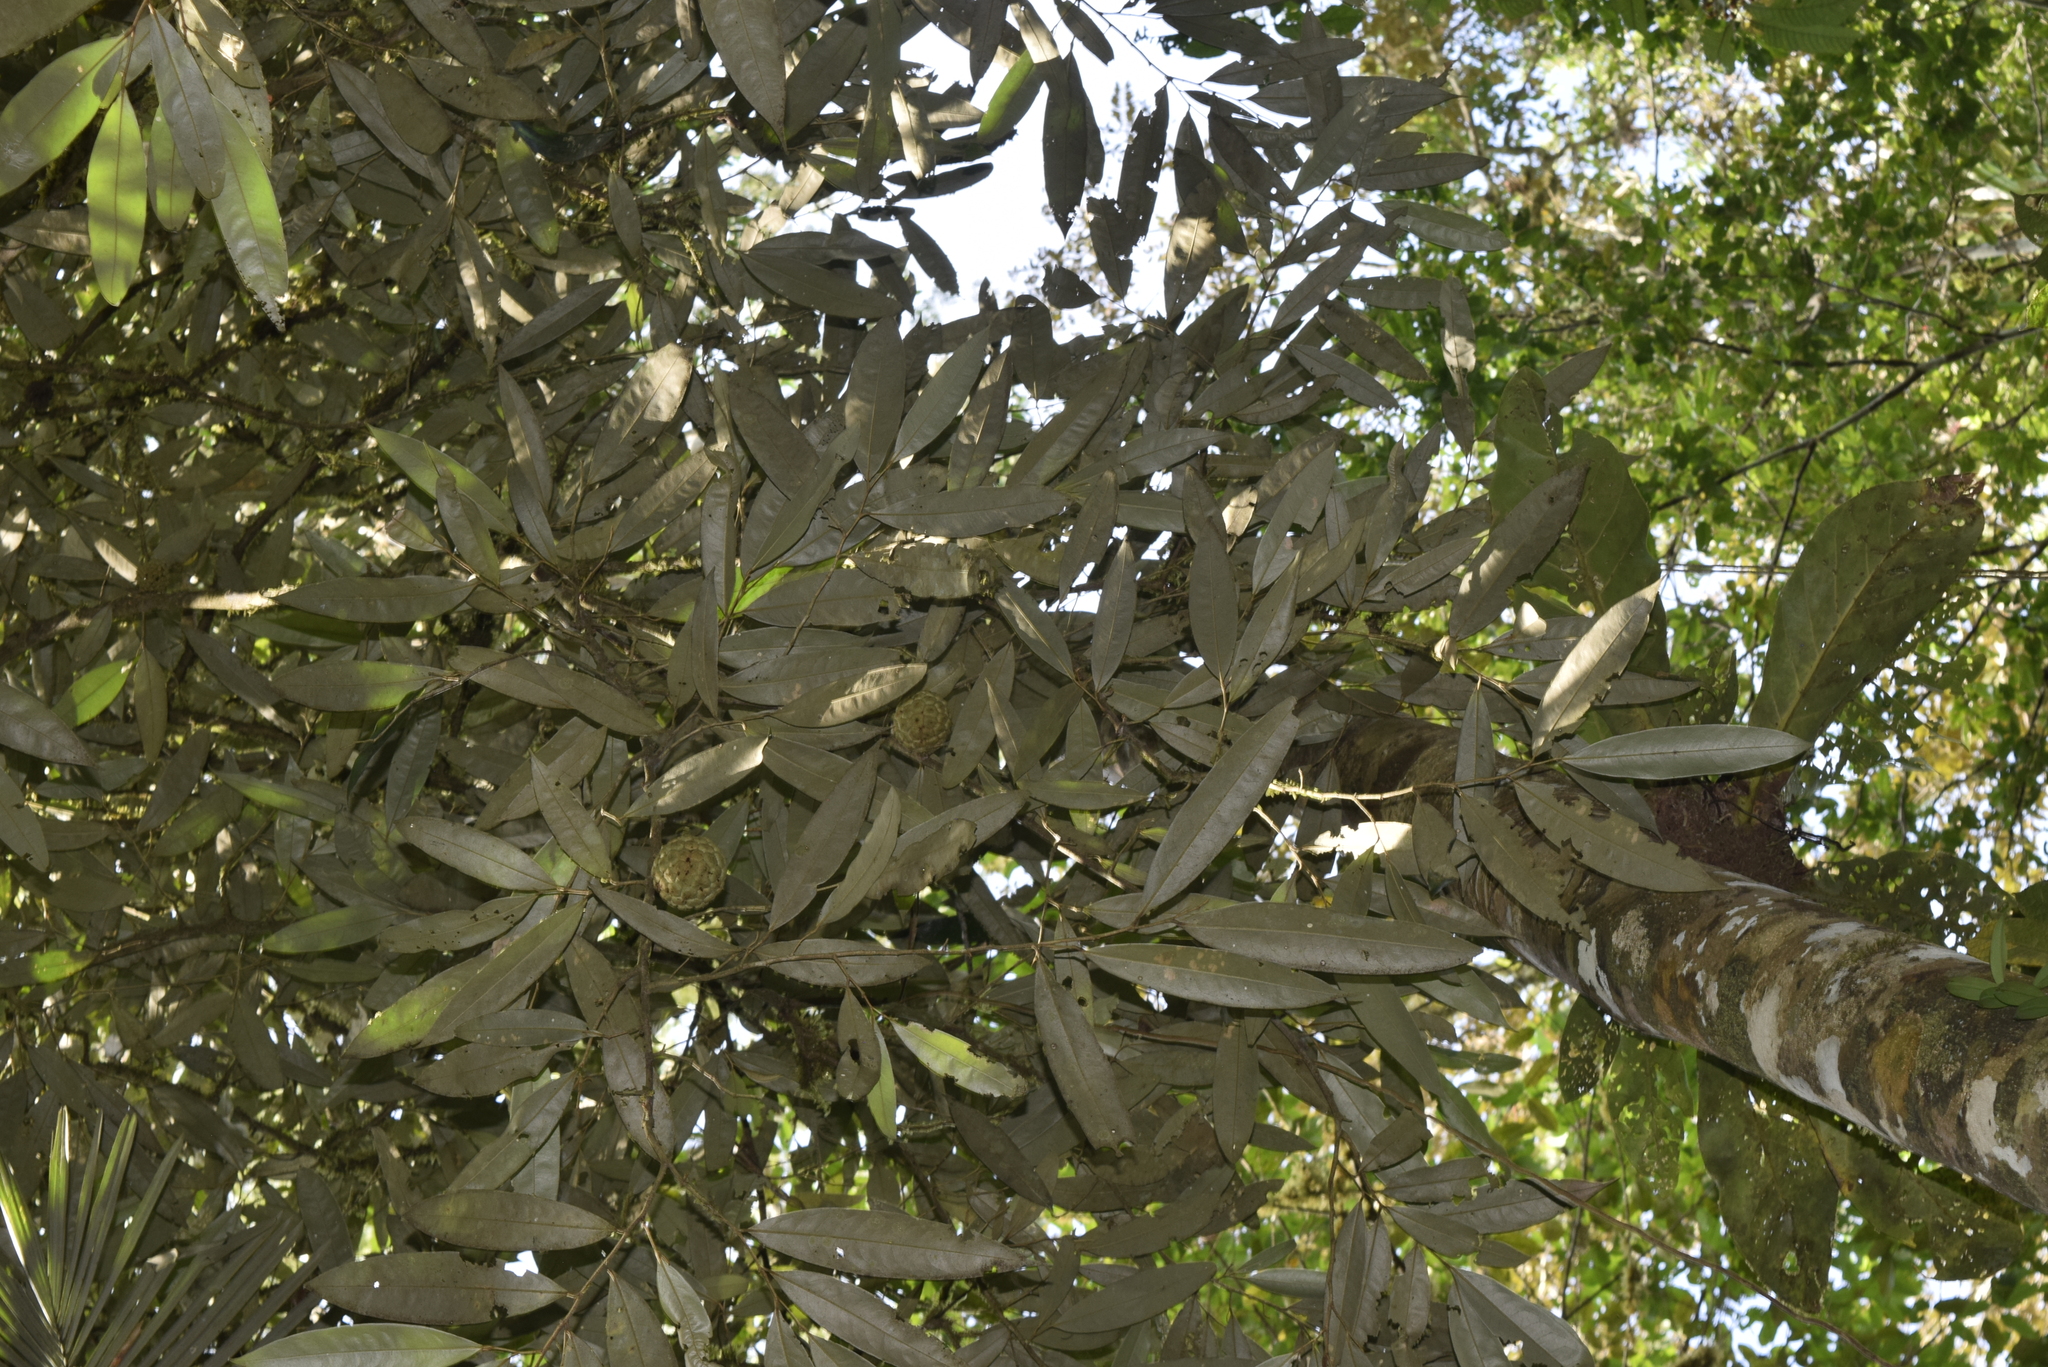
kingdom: Plantae
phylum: Tracheophyta
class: Magnoliopsida
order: Magnoliales
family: Annonaceae
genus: Duguetia
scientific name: Duguetia odorata
